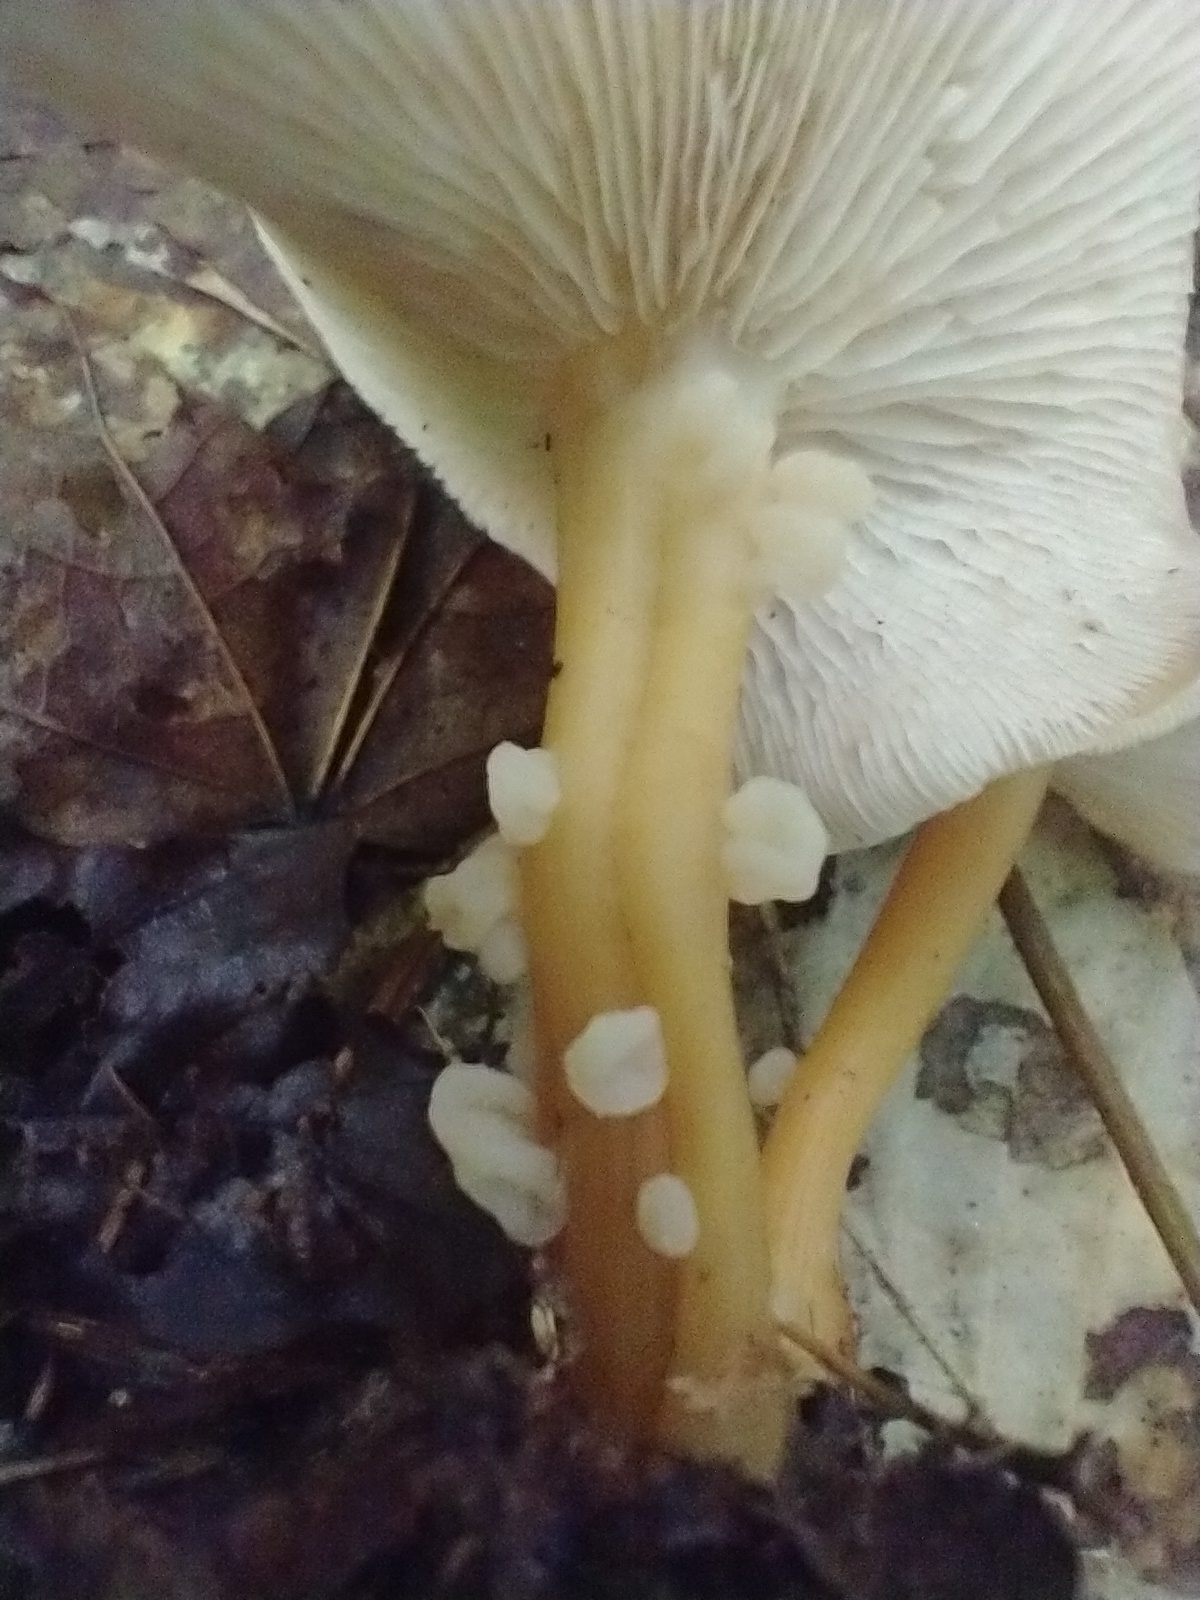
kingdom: Fungi
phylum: Basidiomycota
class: Tremellomycetes
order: Filobasidiales
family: Filobasidiaceae
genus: Syzygospora
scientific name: Syzygospora mycetophila
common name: Collybia clouds
